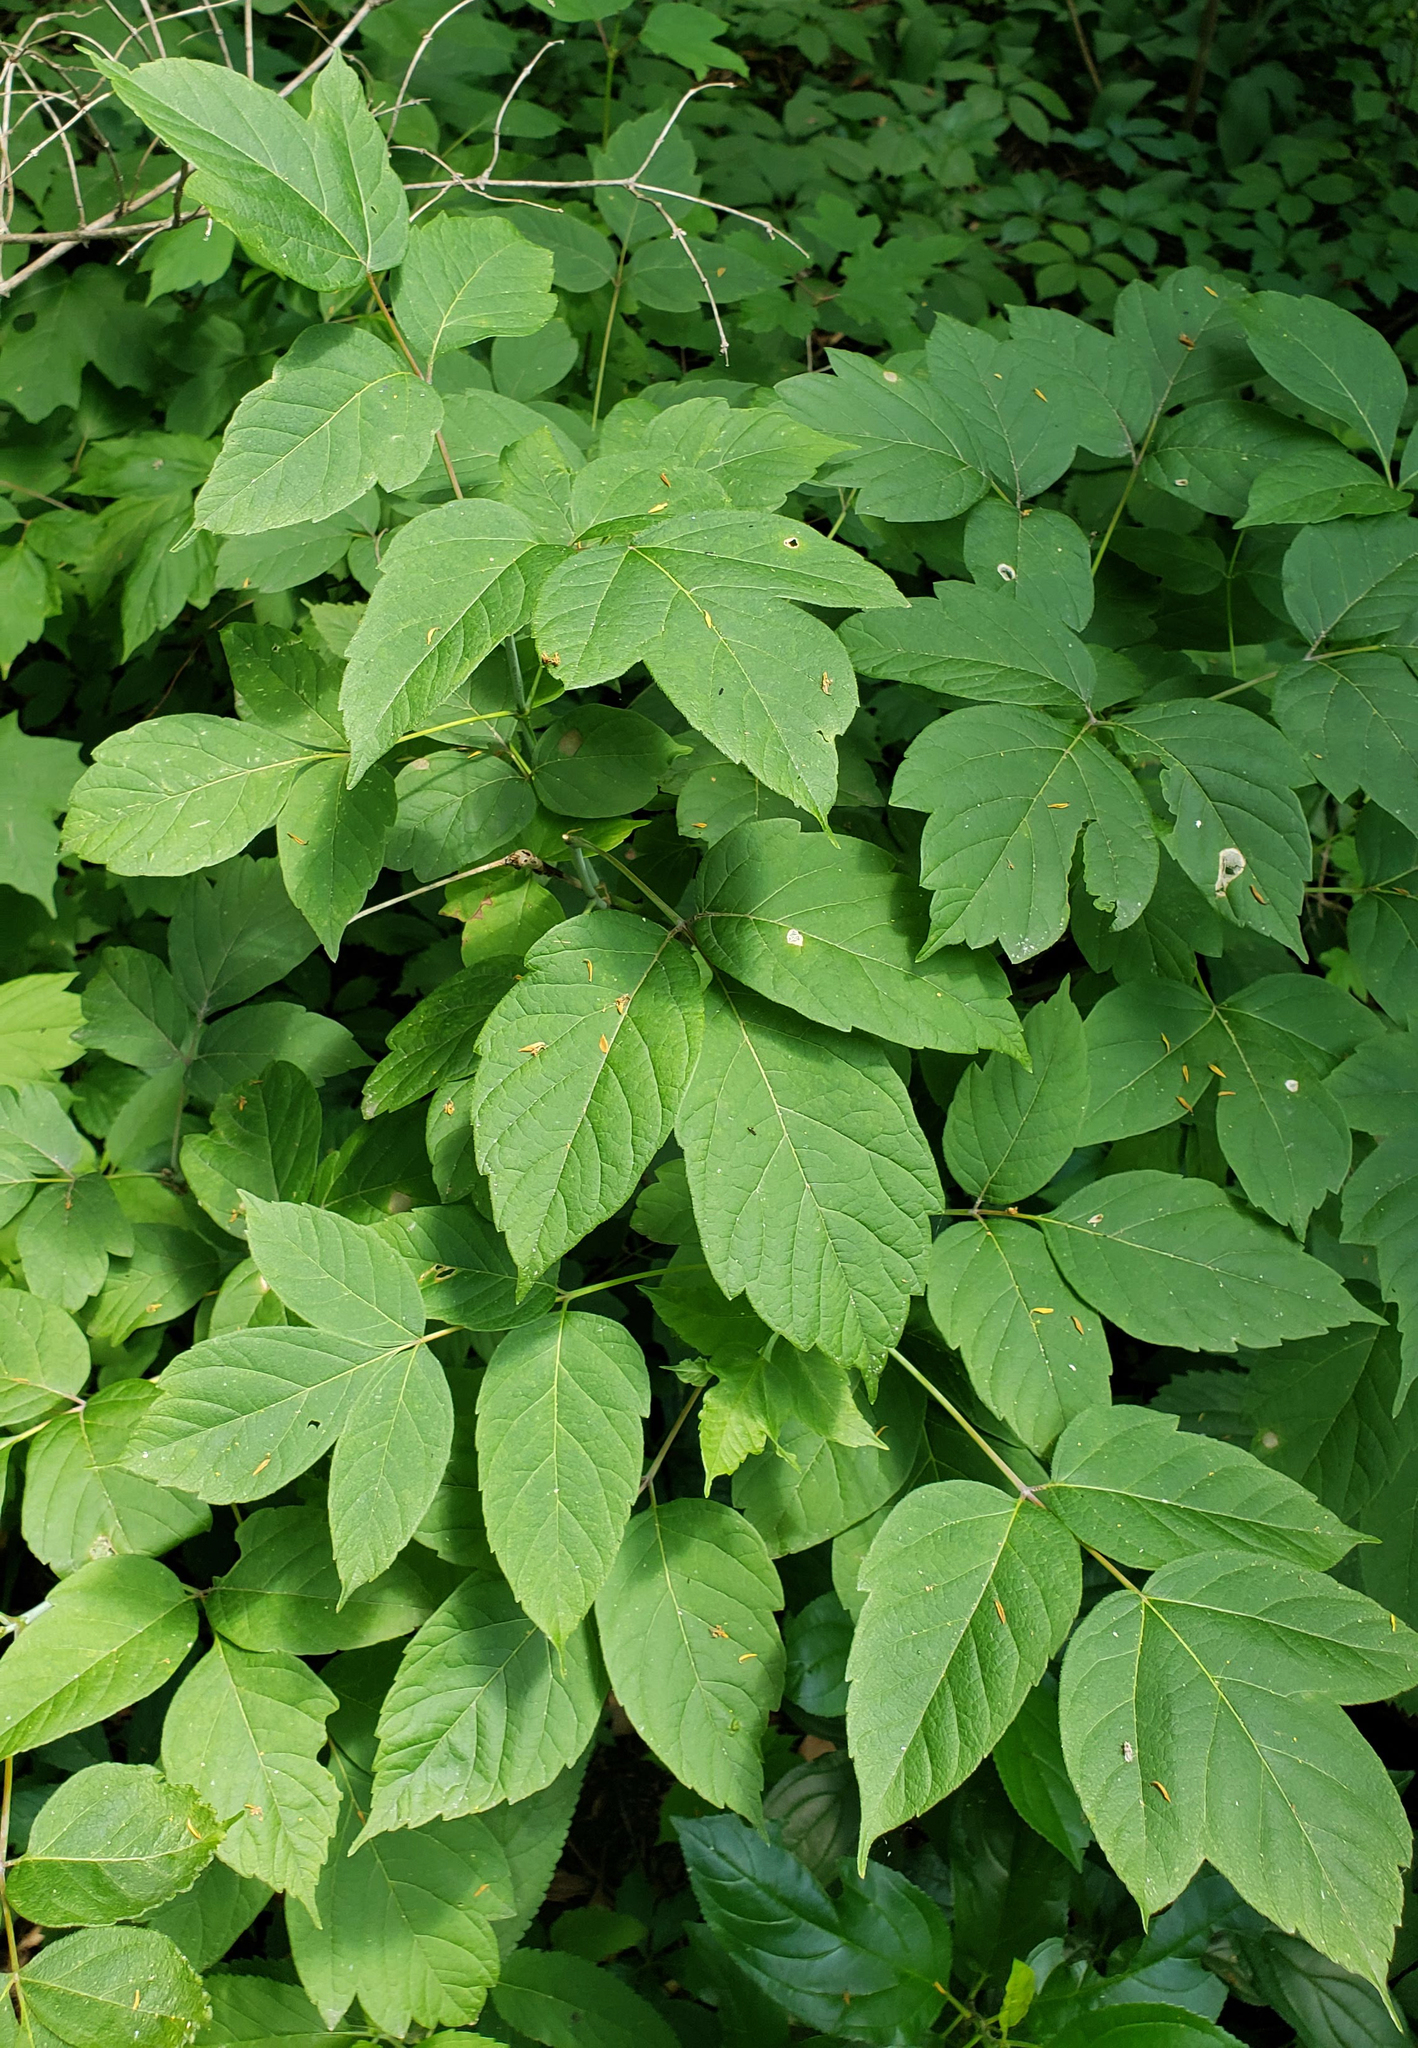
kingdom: Plantae
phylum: Tracheophyta
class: Magnoliopsida
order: Sapindales
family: Sapindaceae
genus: Acer
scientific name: Acer negundo
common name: Ashleaf maple
